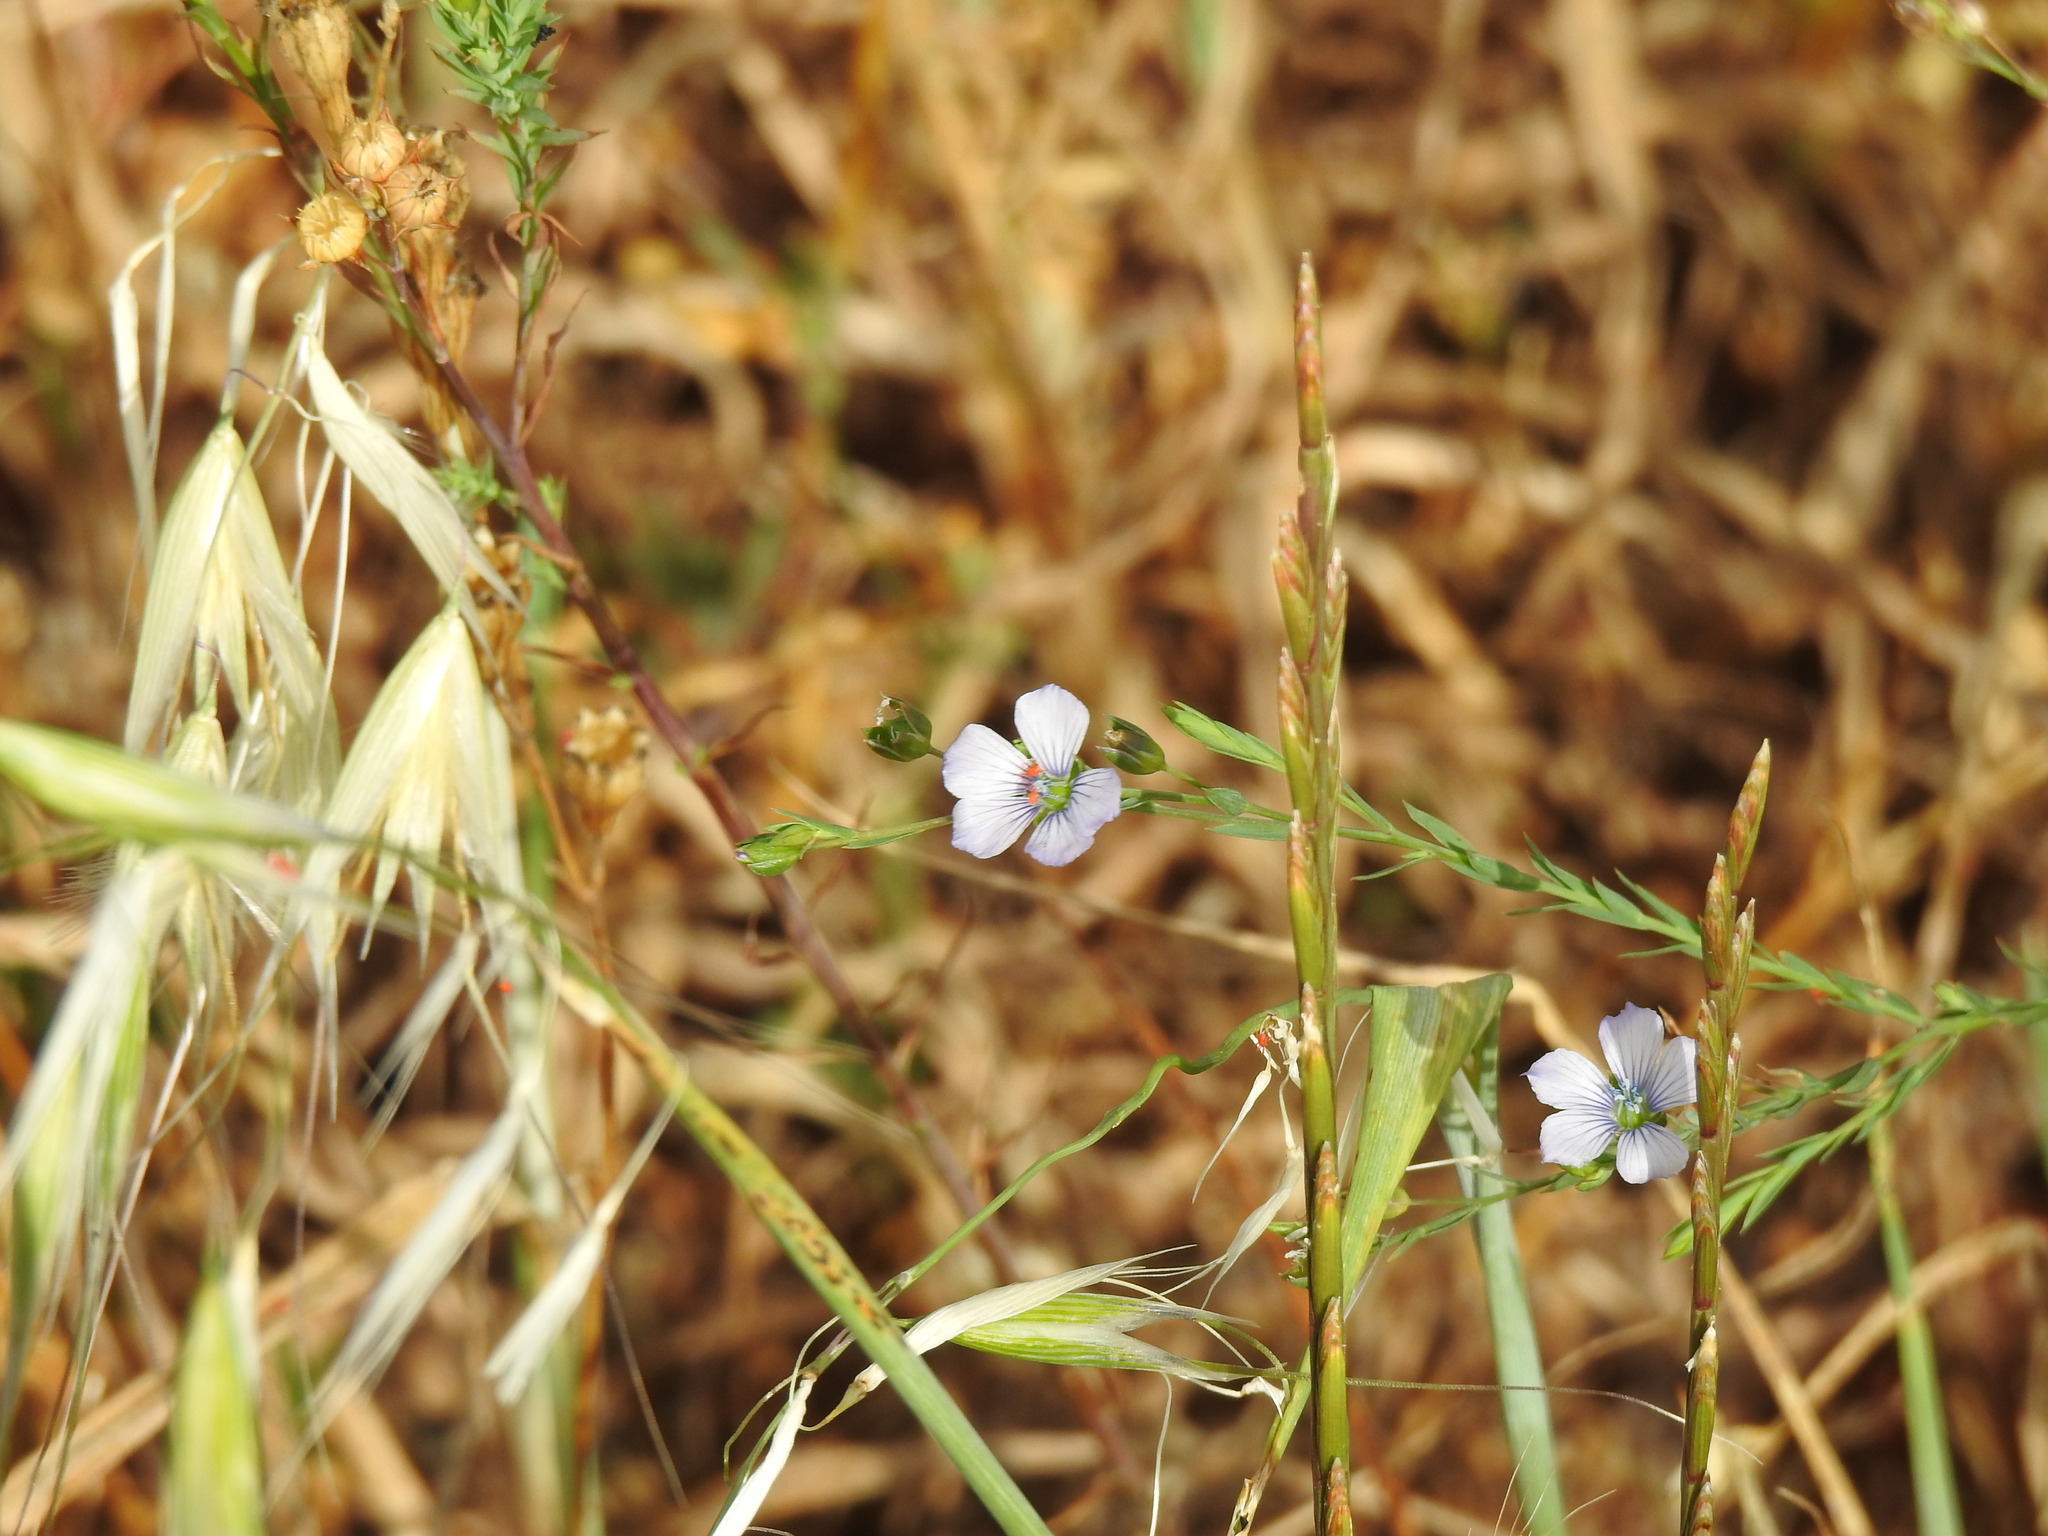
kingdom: Plantae
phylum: Tracheophyta
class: Magnoliopsida
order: Malpighiales
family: Linaceae
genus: Linum
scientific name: Linum bienne
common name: Pale flax
